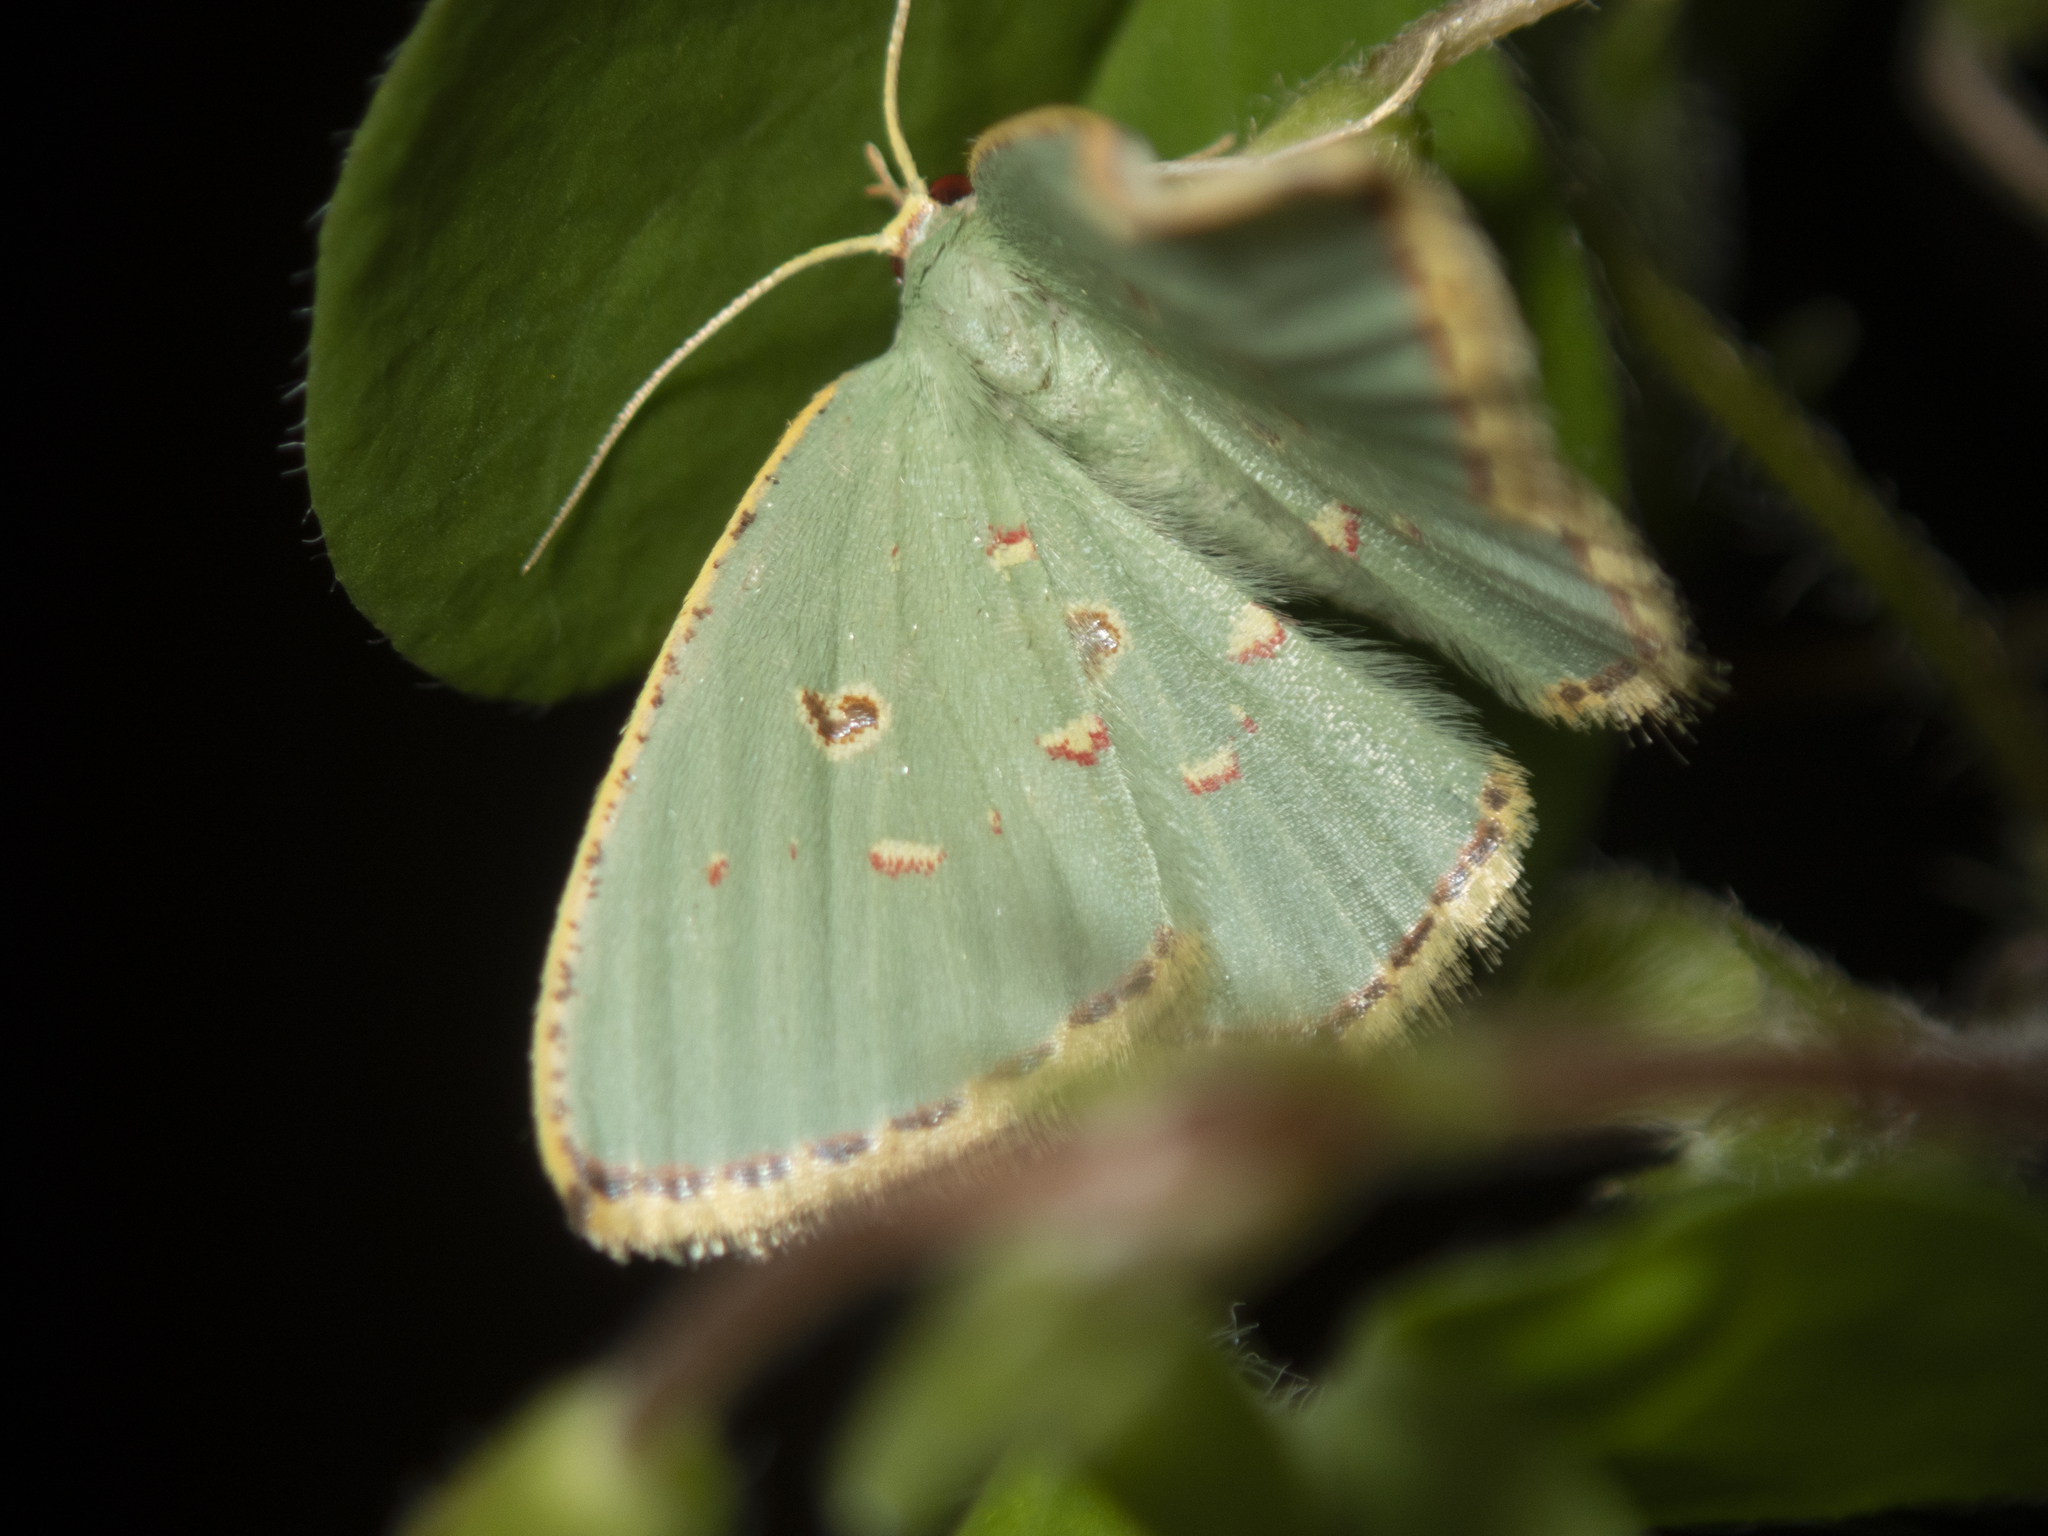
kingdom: Animalia
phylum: Arthropoda
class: Insecta
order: Lepidoptera
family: Geometridae
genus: Comostola
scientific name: Comostola meritaria
